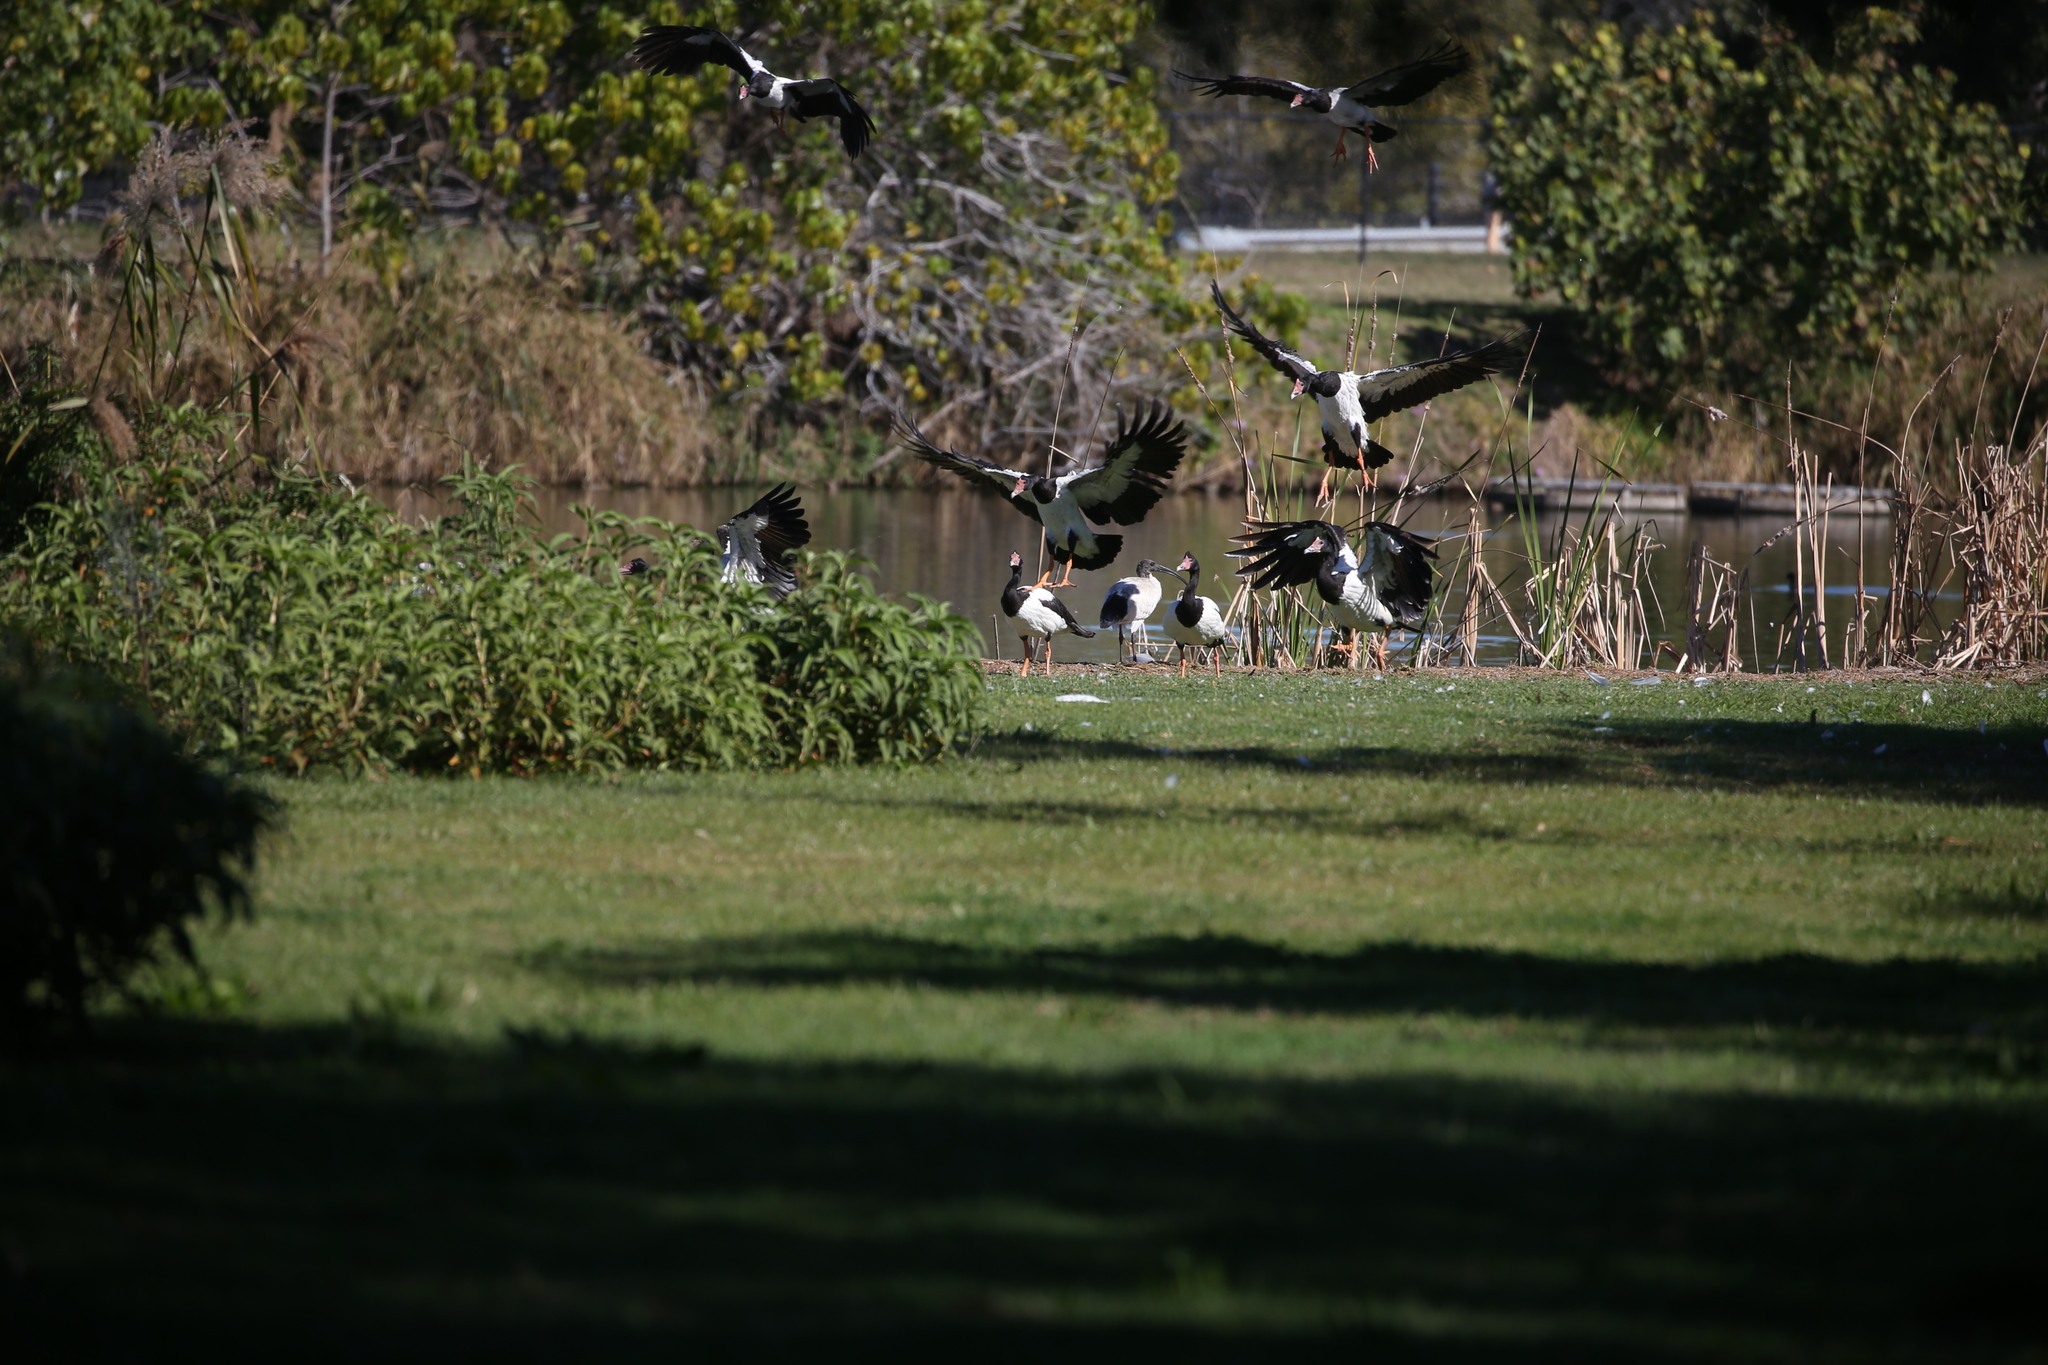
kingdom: Animalia
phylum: Chordata
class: Aves
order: Anseriformes
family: Anseranatidae
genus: Anseranas
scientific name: Anseranas semipalmata
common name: Magpie goose
